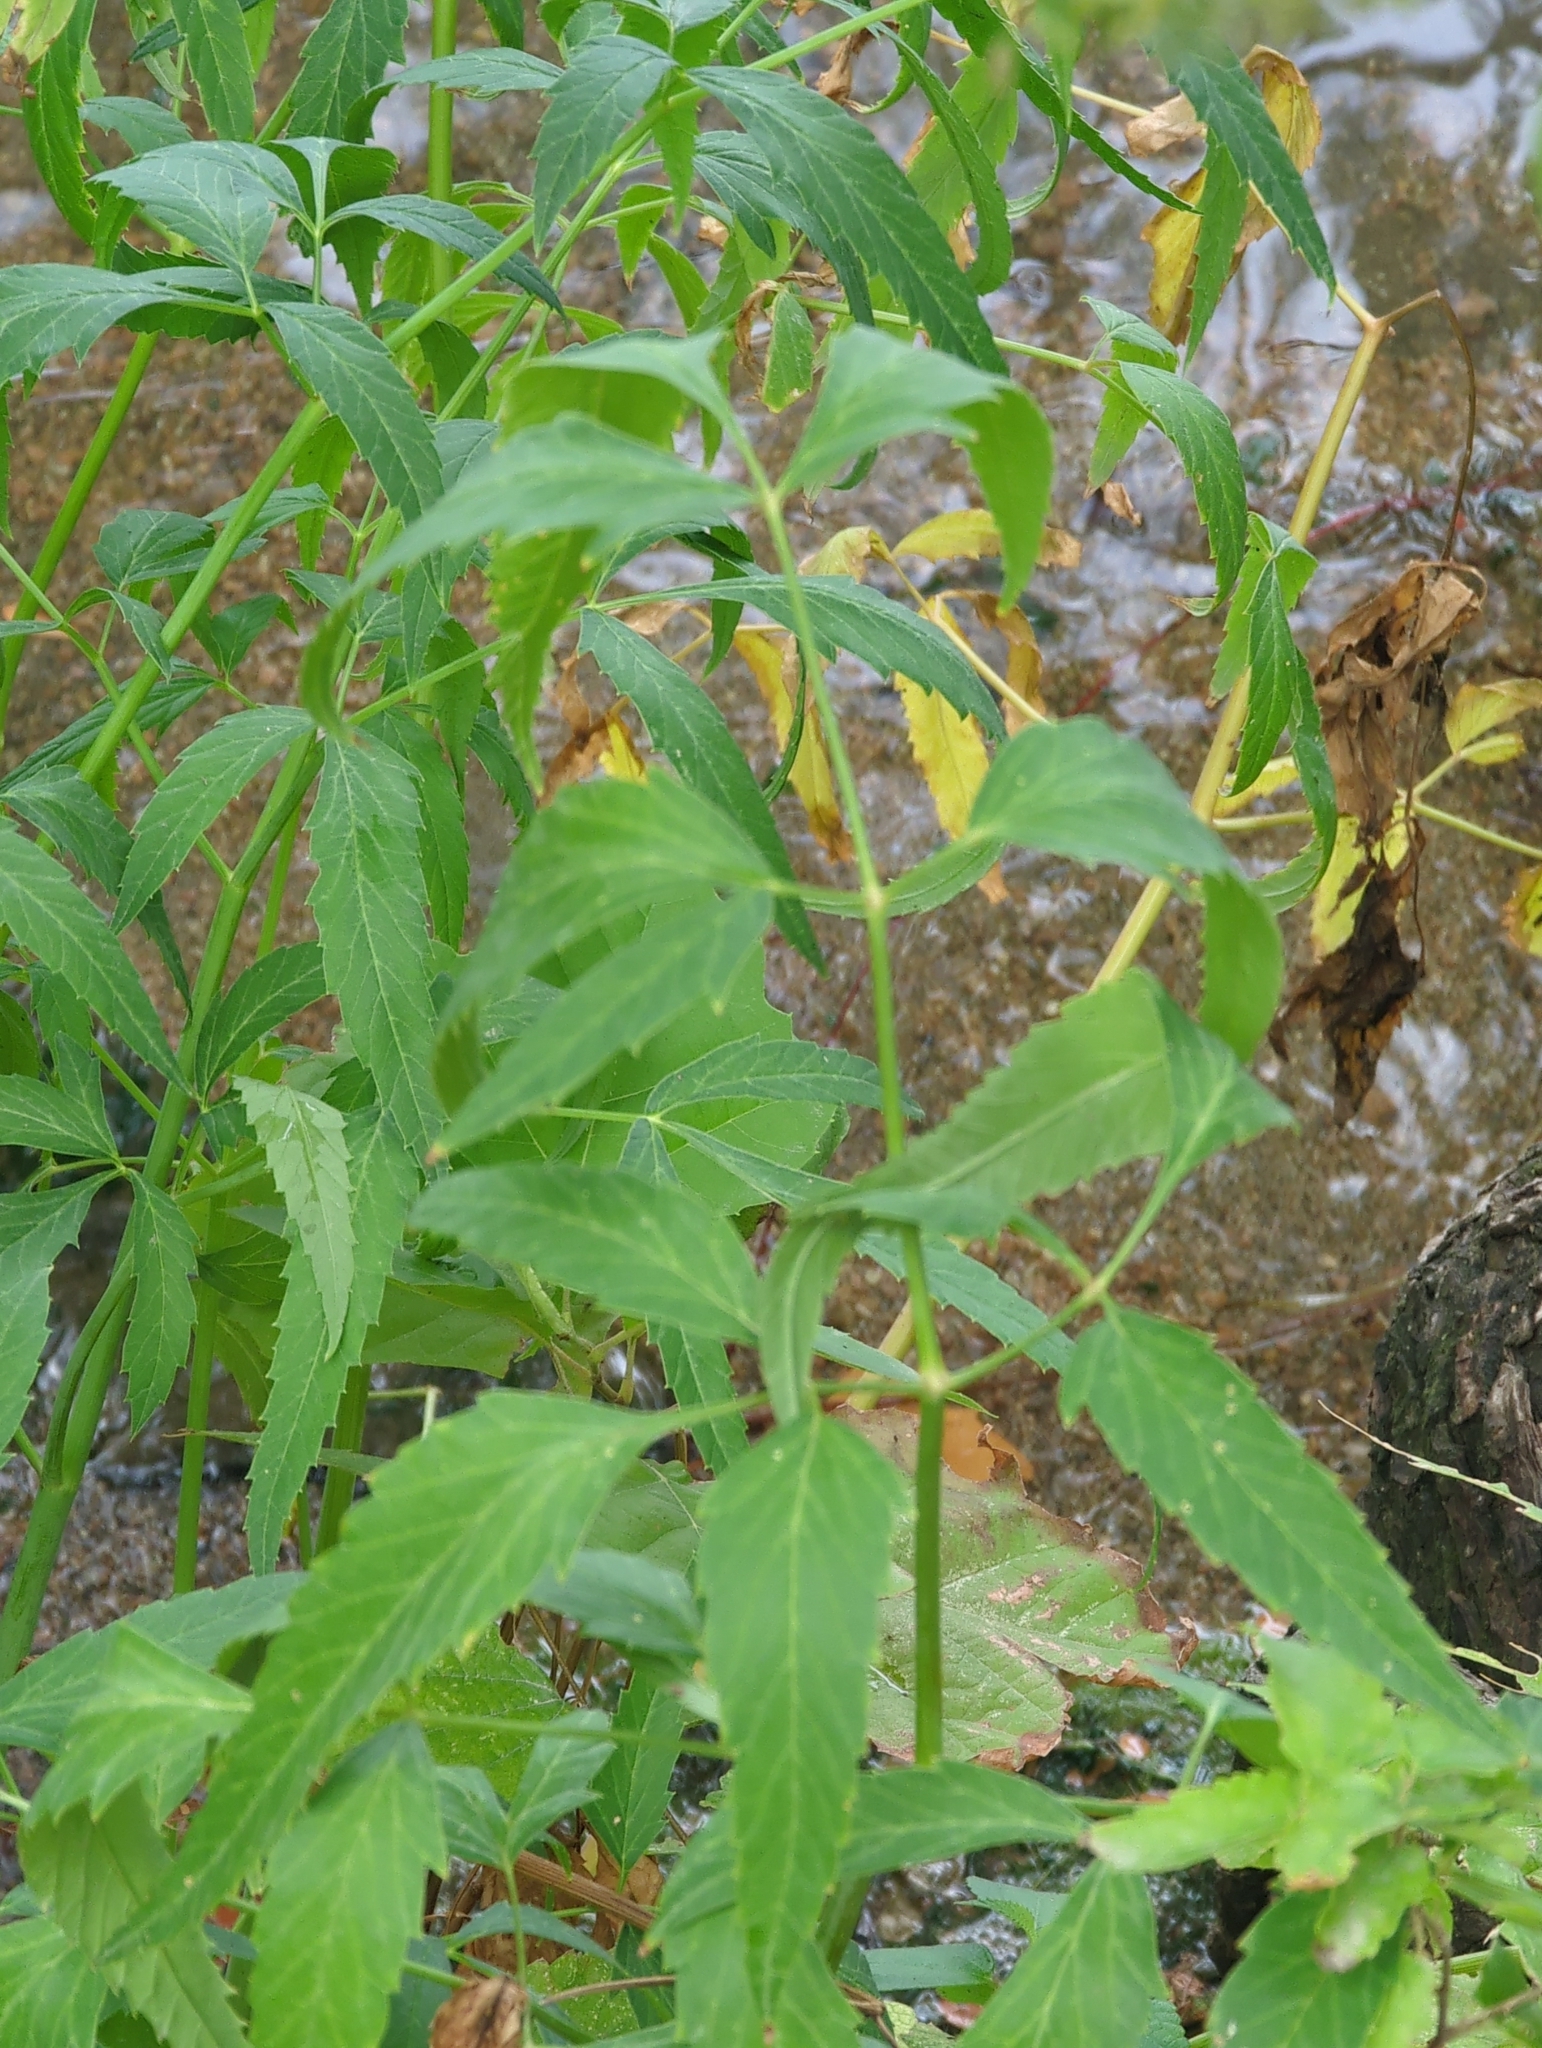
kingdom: Plantae
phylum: Tracheophyta
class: Magnoliopsida
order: Apiales
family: Apiaceae
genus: Cicuta
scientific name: Cicuta maculata
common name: Spotted cowbane
